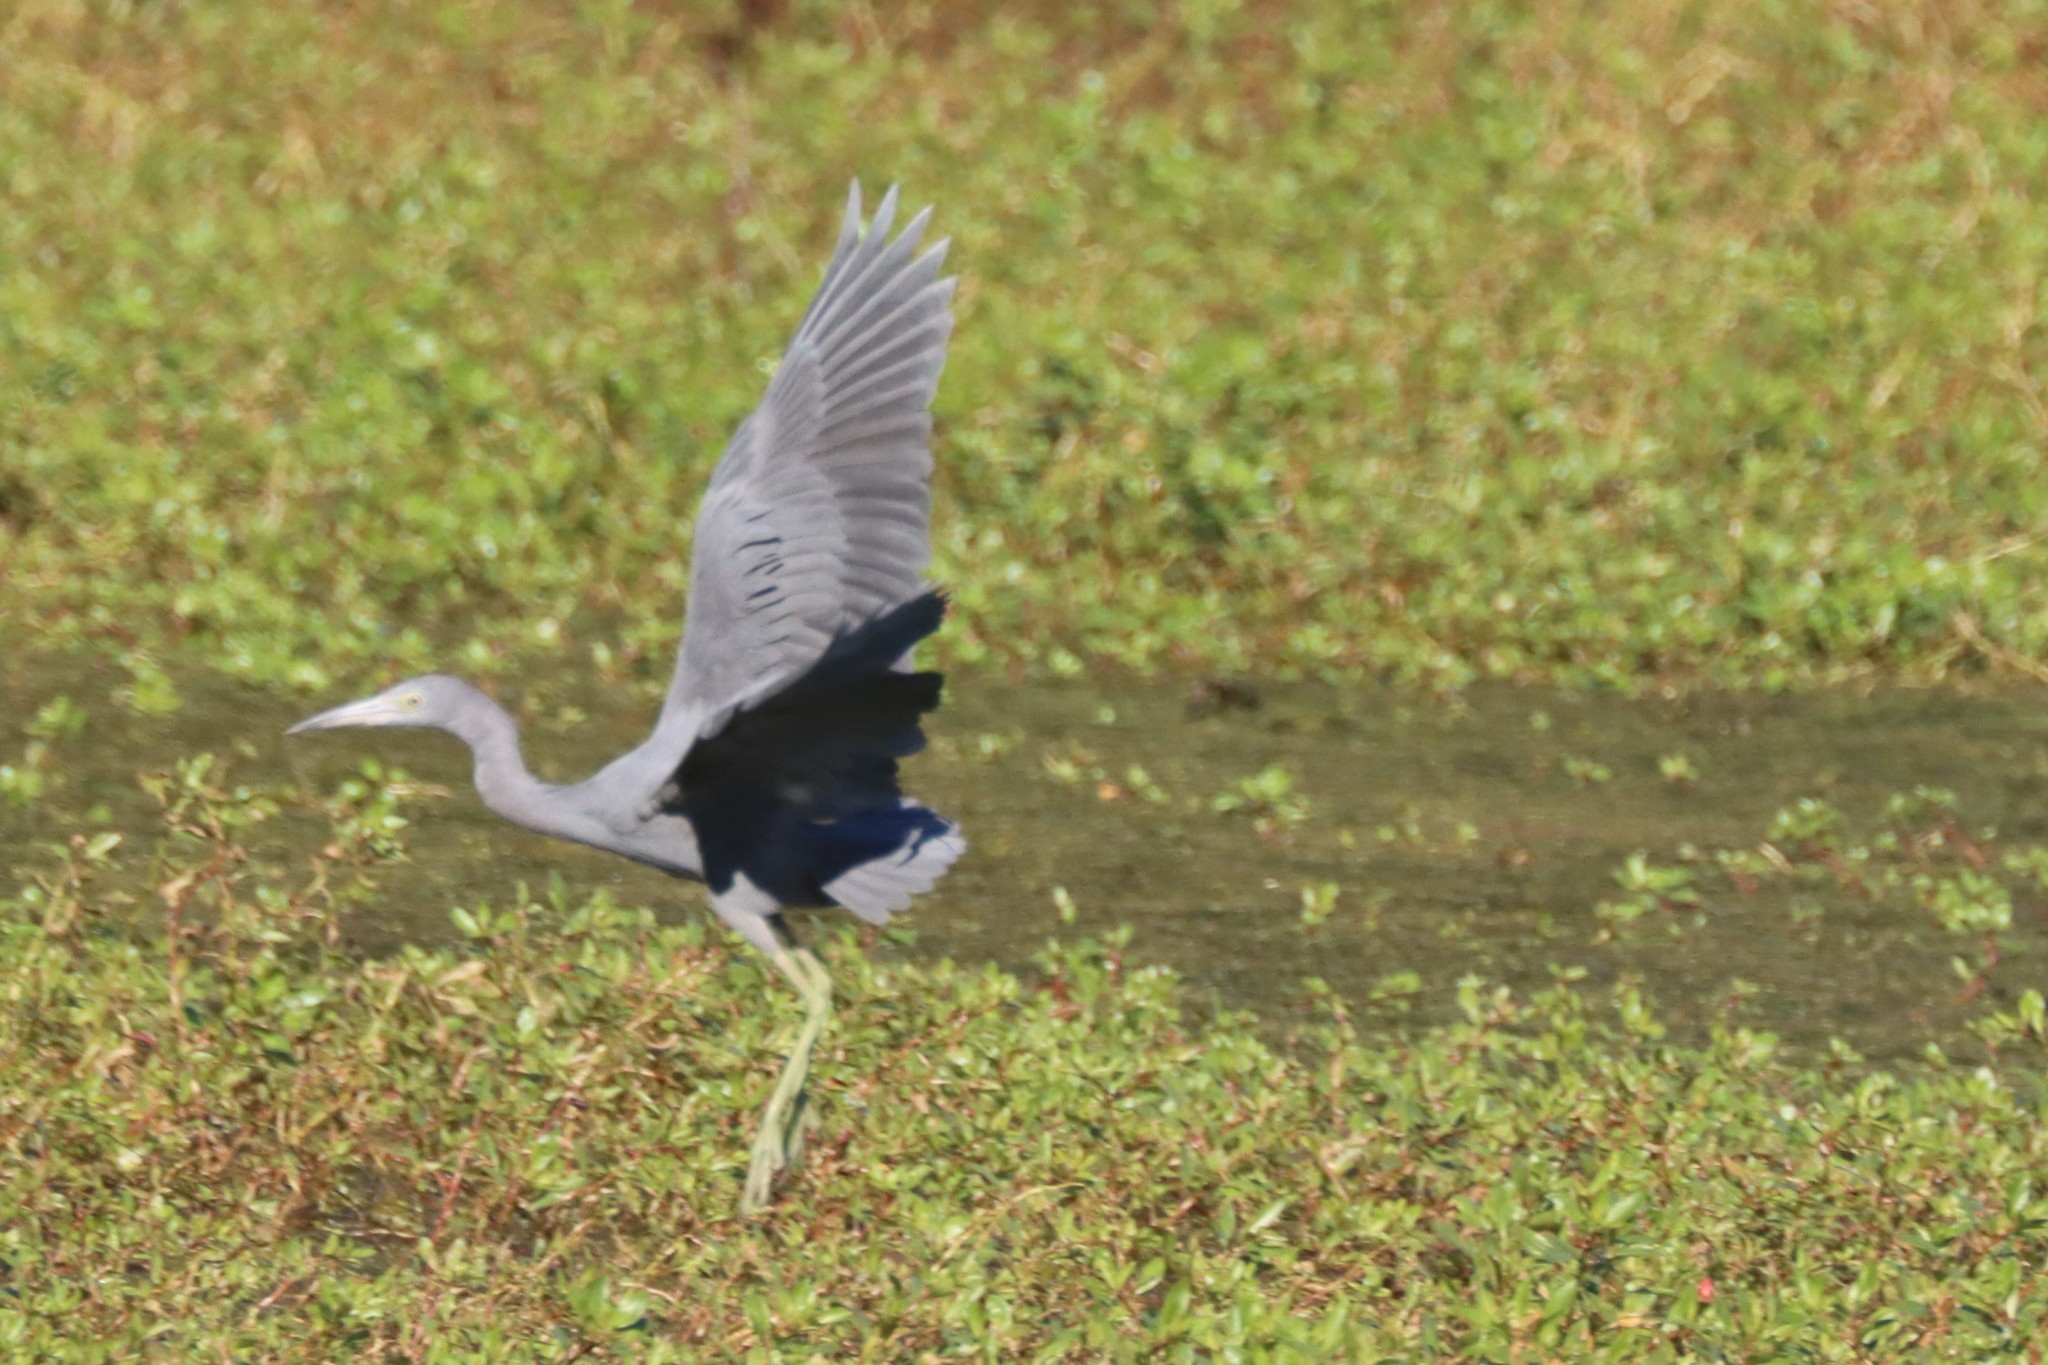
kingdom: Animalia
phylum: Chordata
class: Aves
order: Pelecaniformes
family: Ardeidae
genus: Egretta
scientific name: Egretta caerulea
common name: Little blue heron
